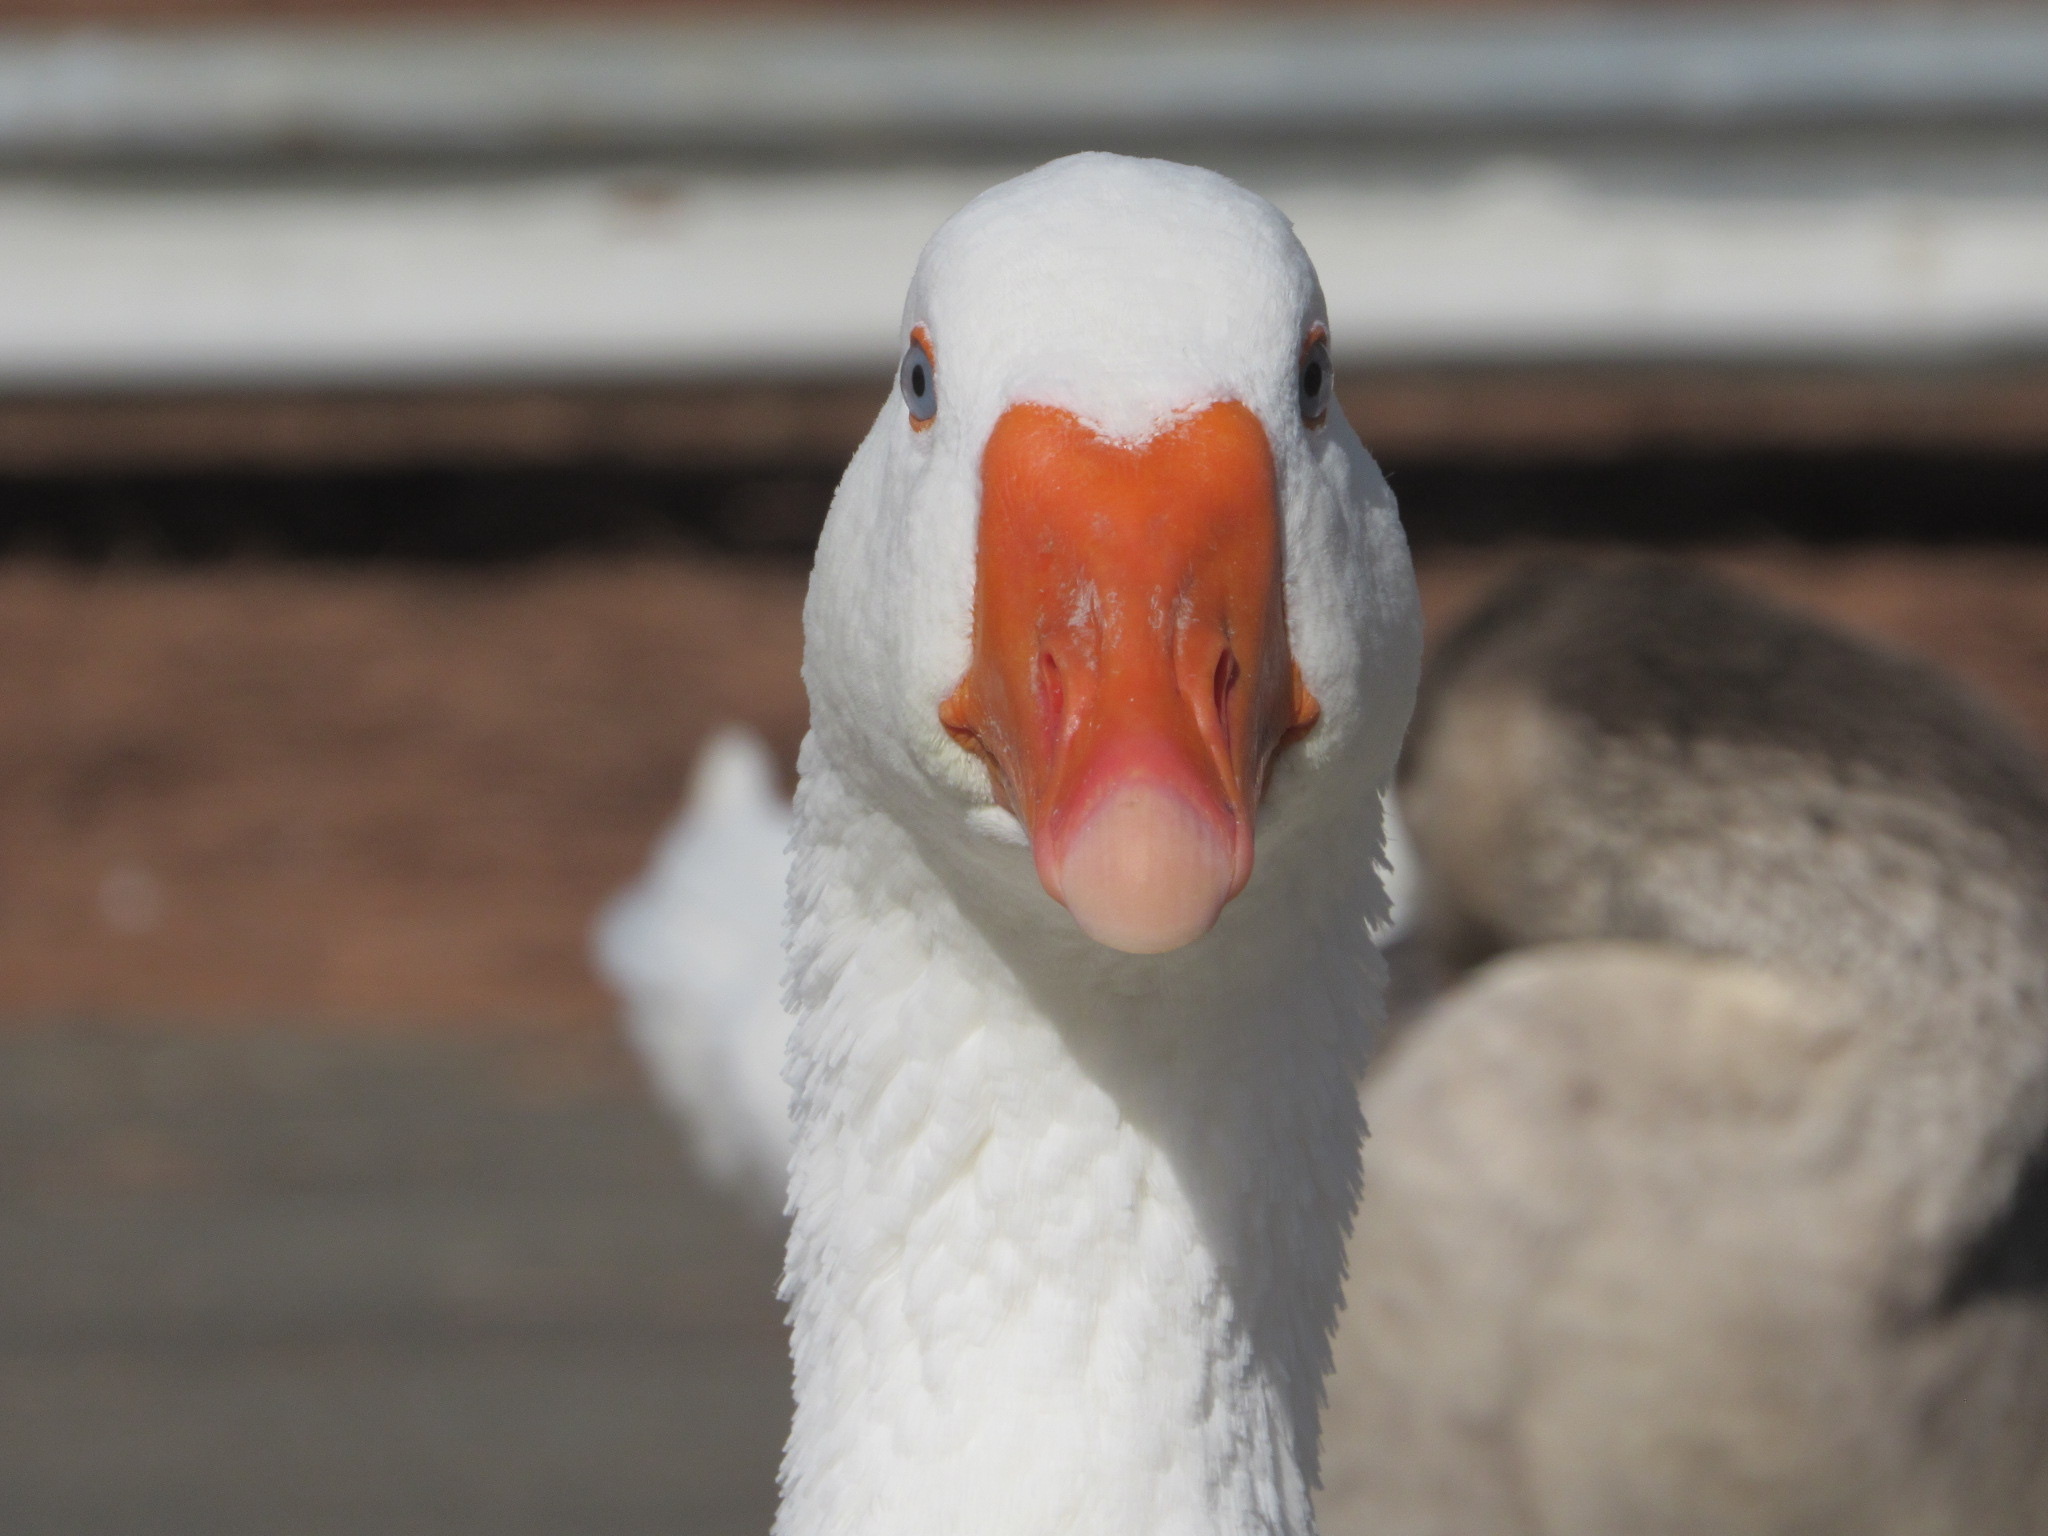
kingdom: Animalia
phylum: Chordata
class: Aves
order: Anseriformes
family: Anatidae
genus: Anser
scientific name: Anser anser
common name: Greylag goose
